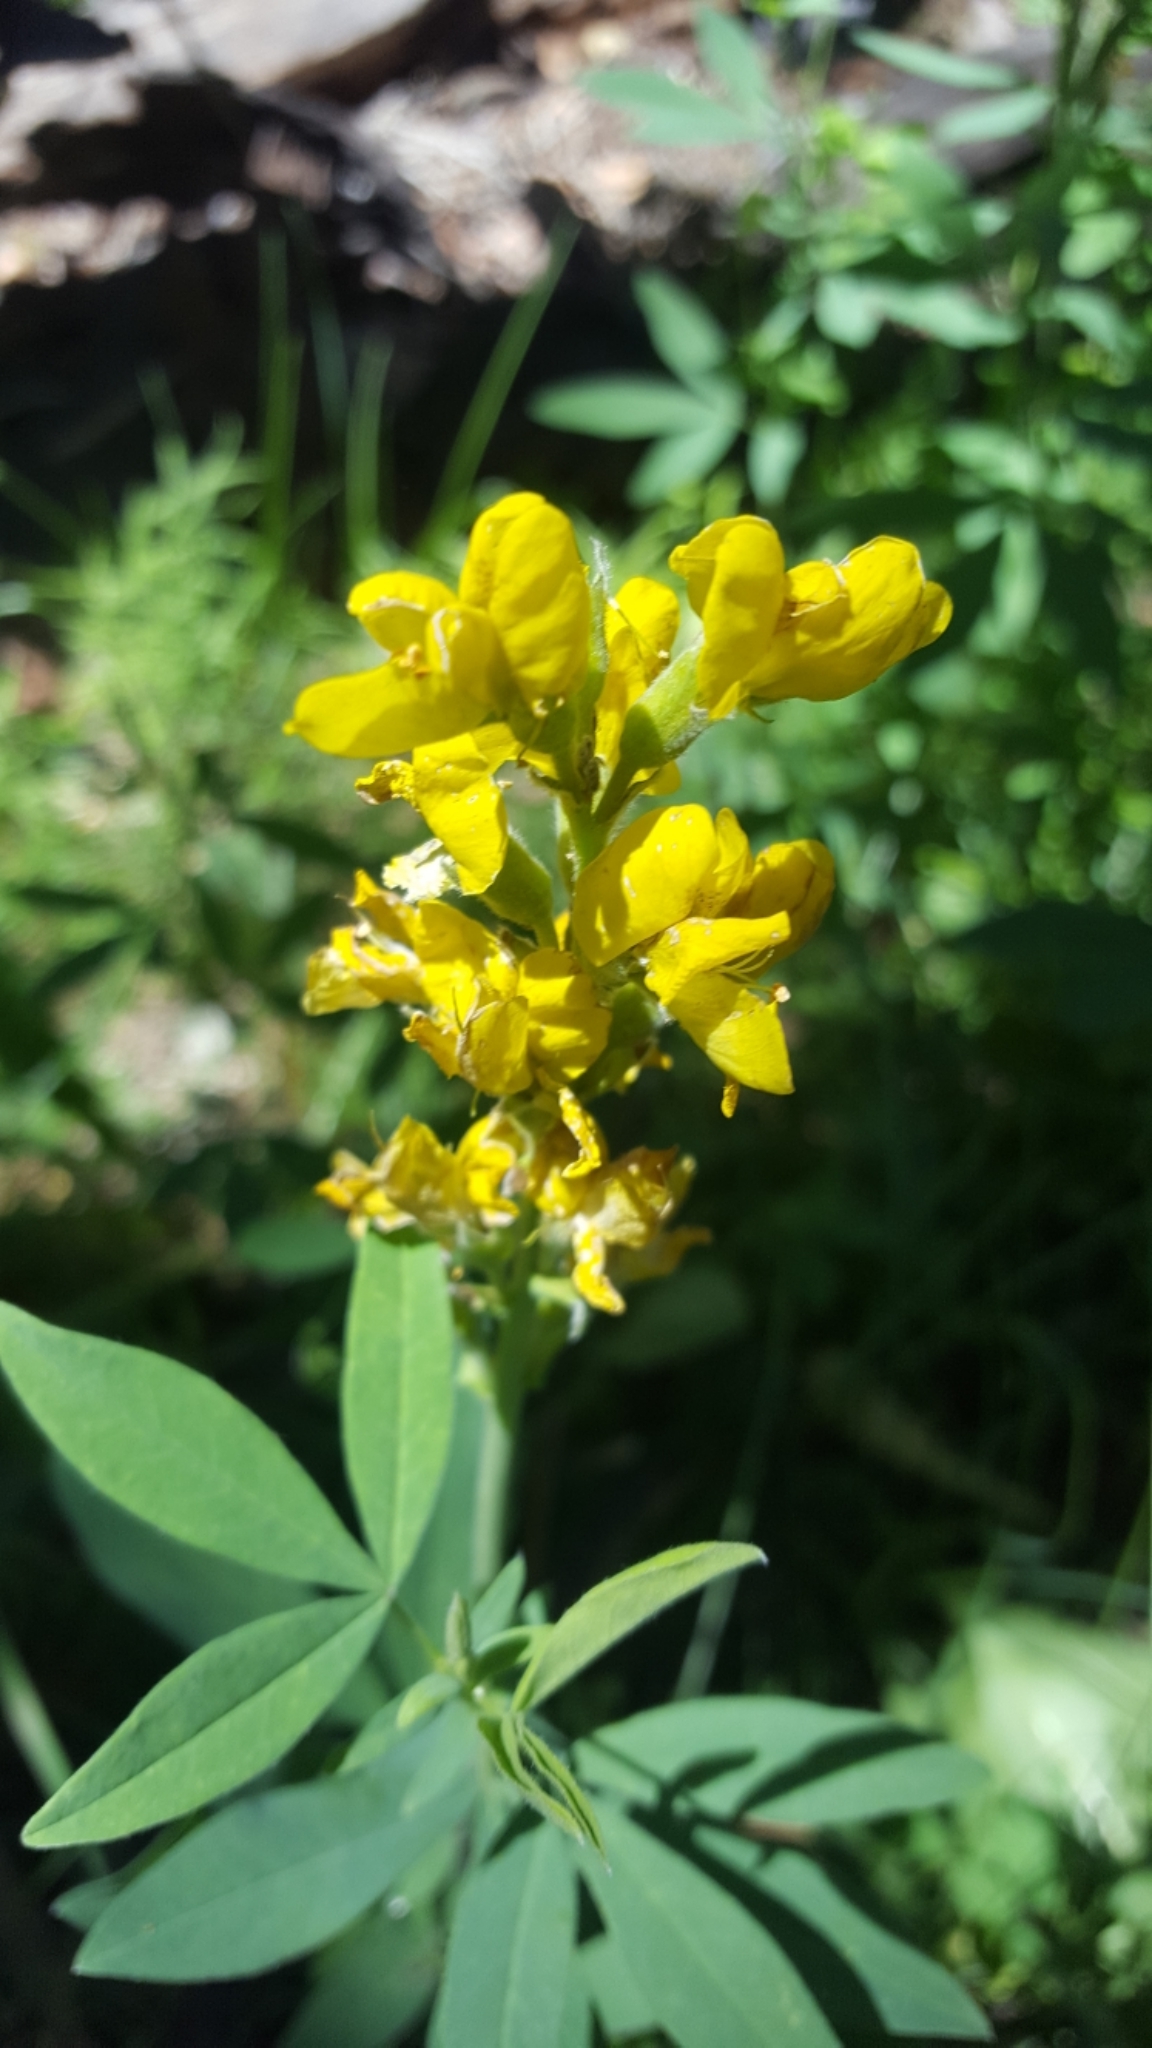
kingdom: Plantae
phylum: Tracheophyta
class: Magnoliopsida
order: Fabales
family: Fabaceae
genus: Thermopsis
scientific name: Thermopsis montana
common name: False lupin
